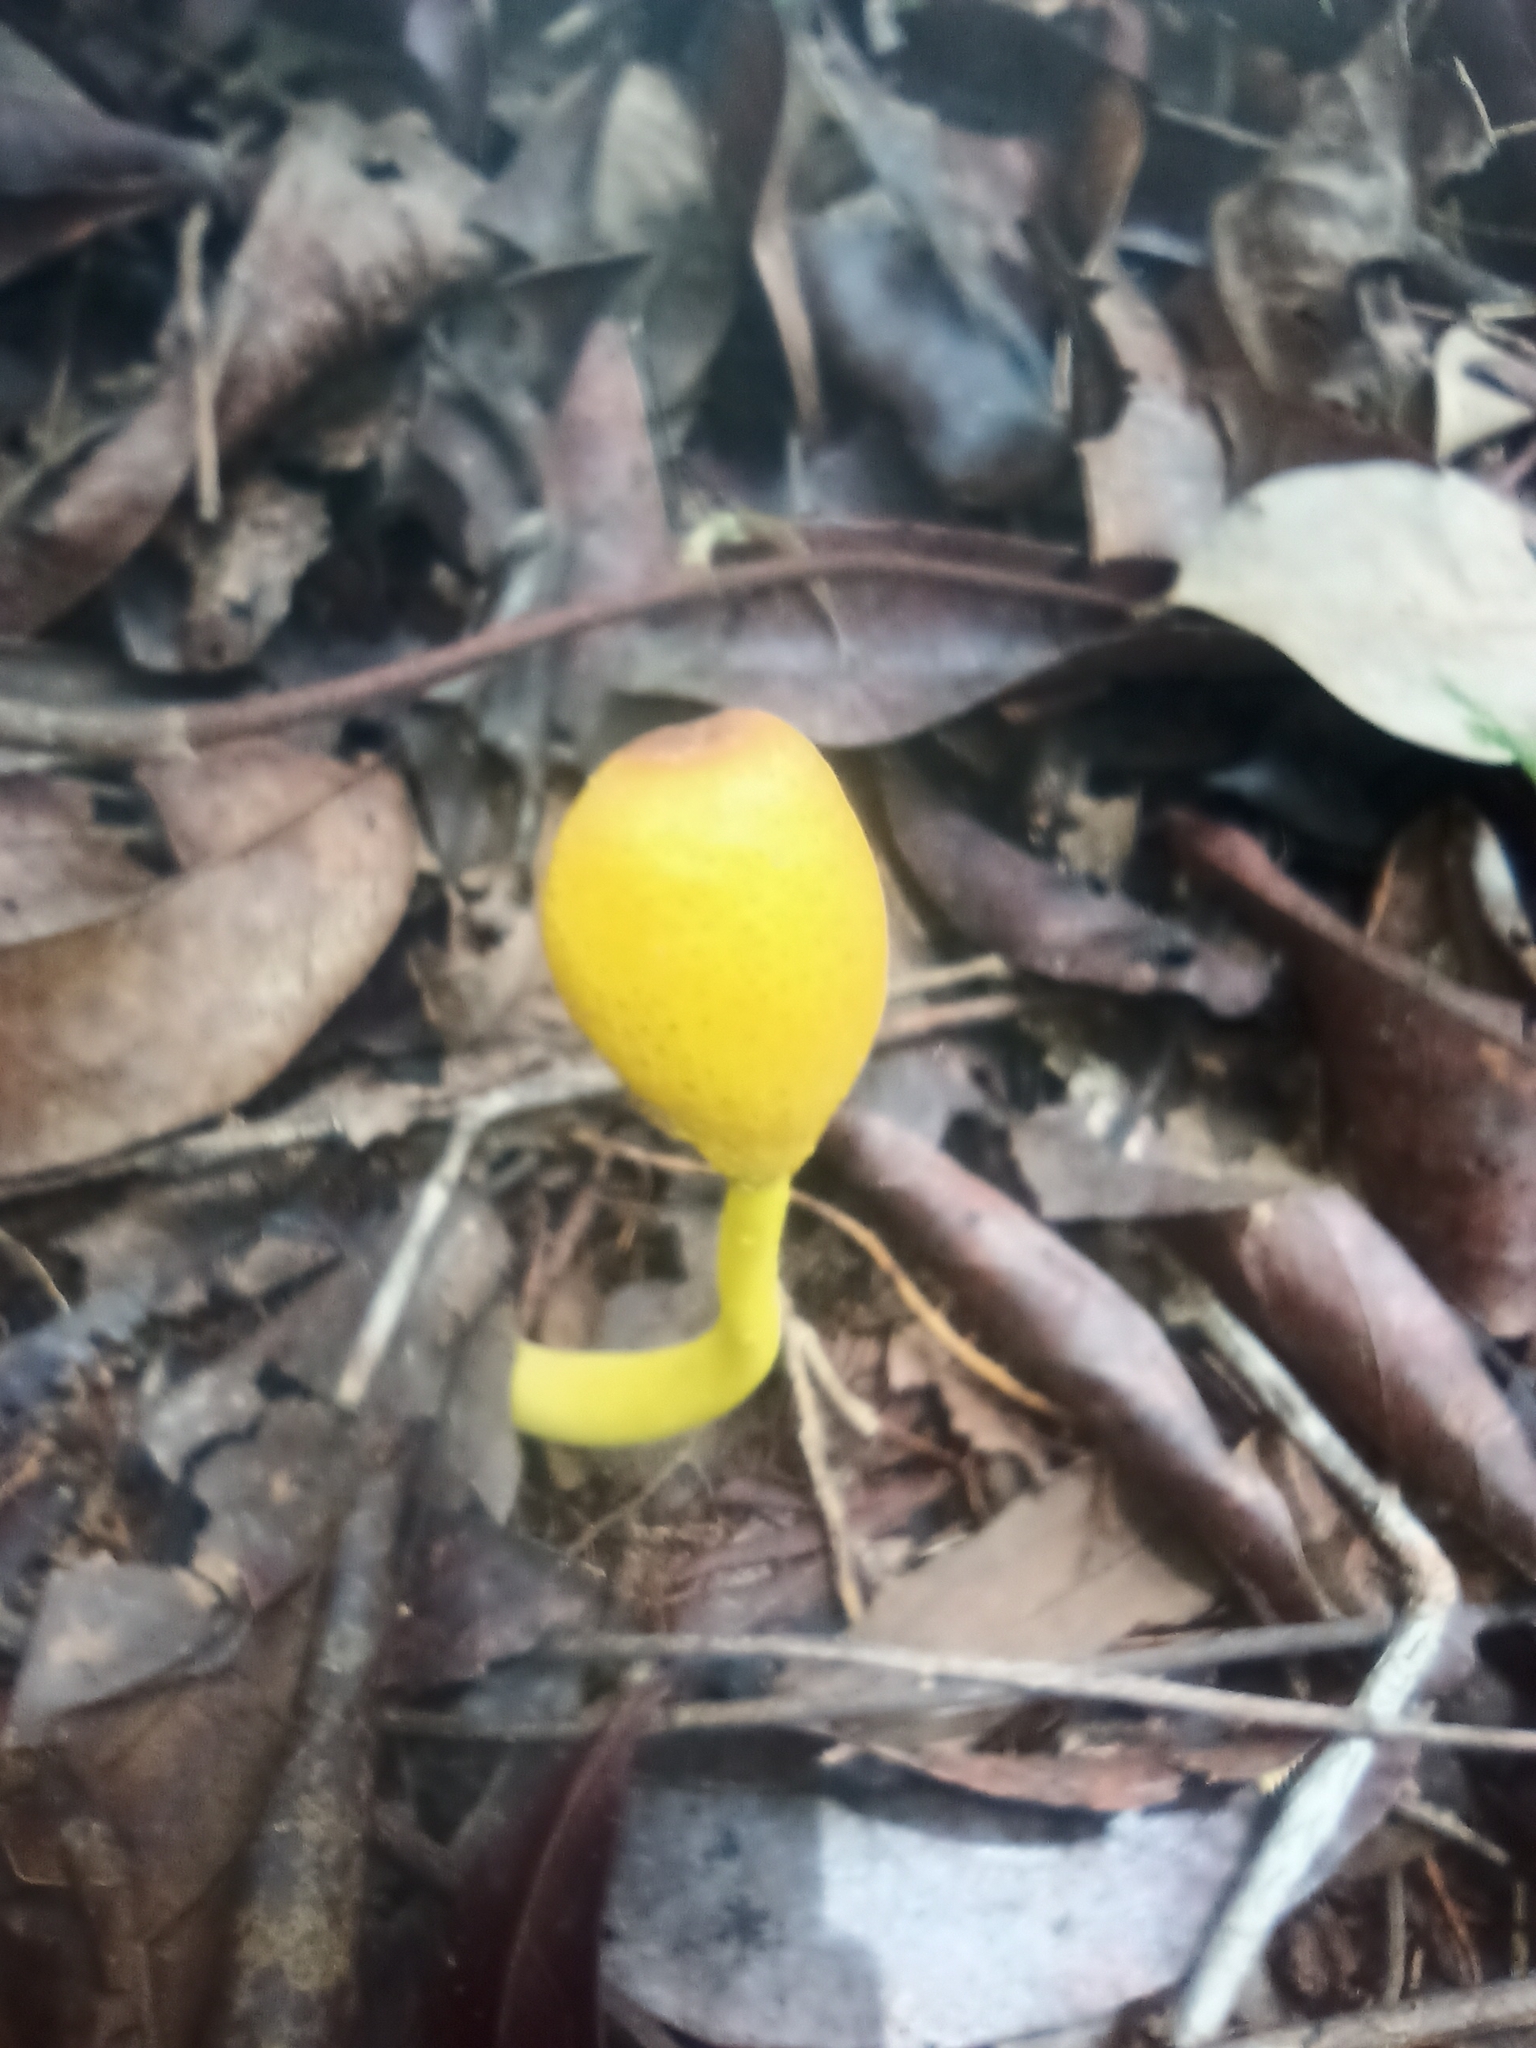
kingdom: Fungi
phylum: Basidiomycota
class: Agaricomycetes
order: Agaricales
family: Agaricaceae
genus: Leucocoprinus
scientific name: Leucocoprinus brunneoluteus
